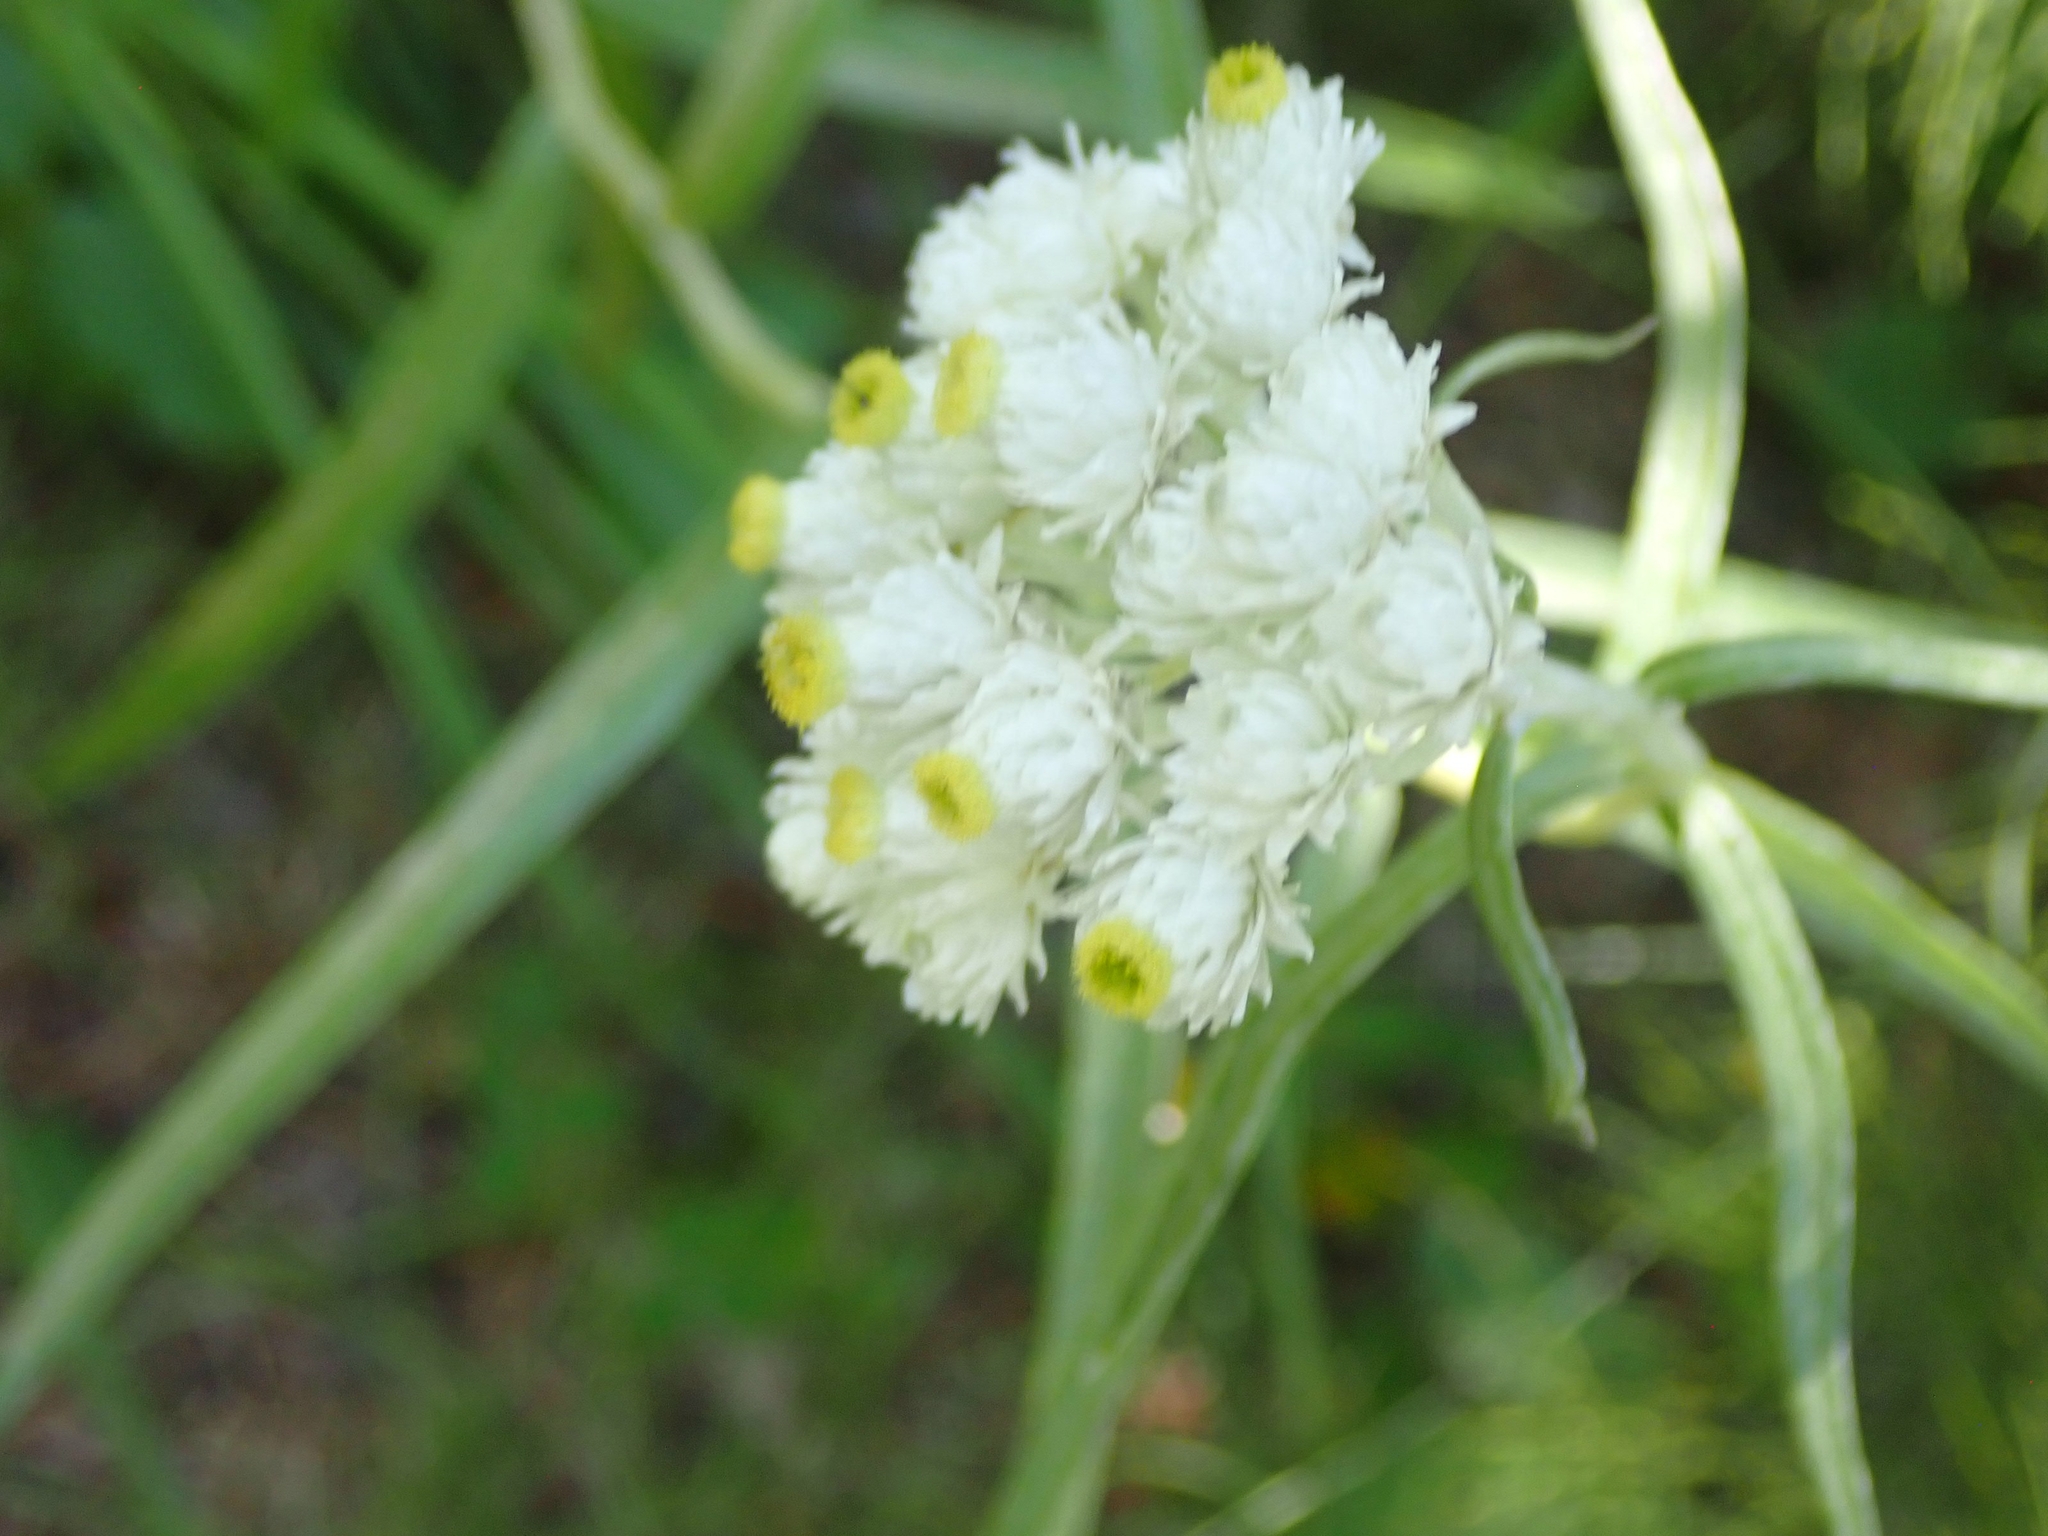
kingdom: Plantae
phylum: Tracheophyta
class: Magnoliopsida
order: Asterales
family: Asteraceae
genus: Anaphalis
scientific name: Anaphalis margaritacea
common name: Pearly everlasting
